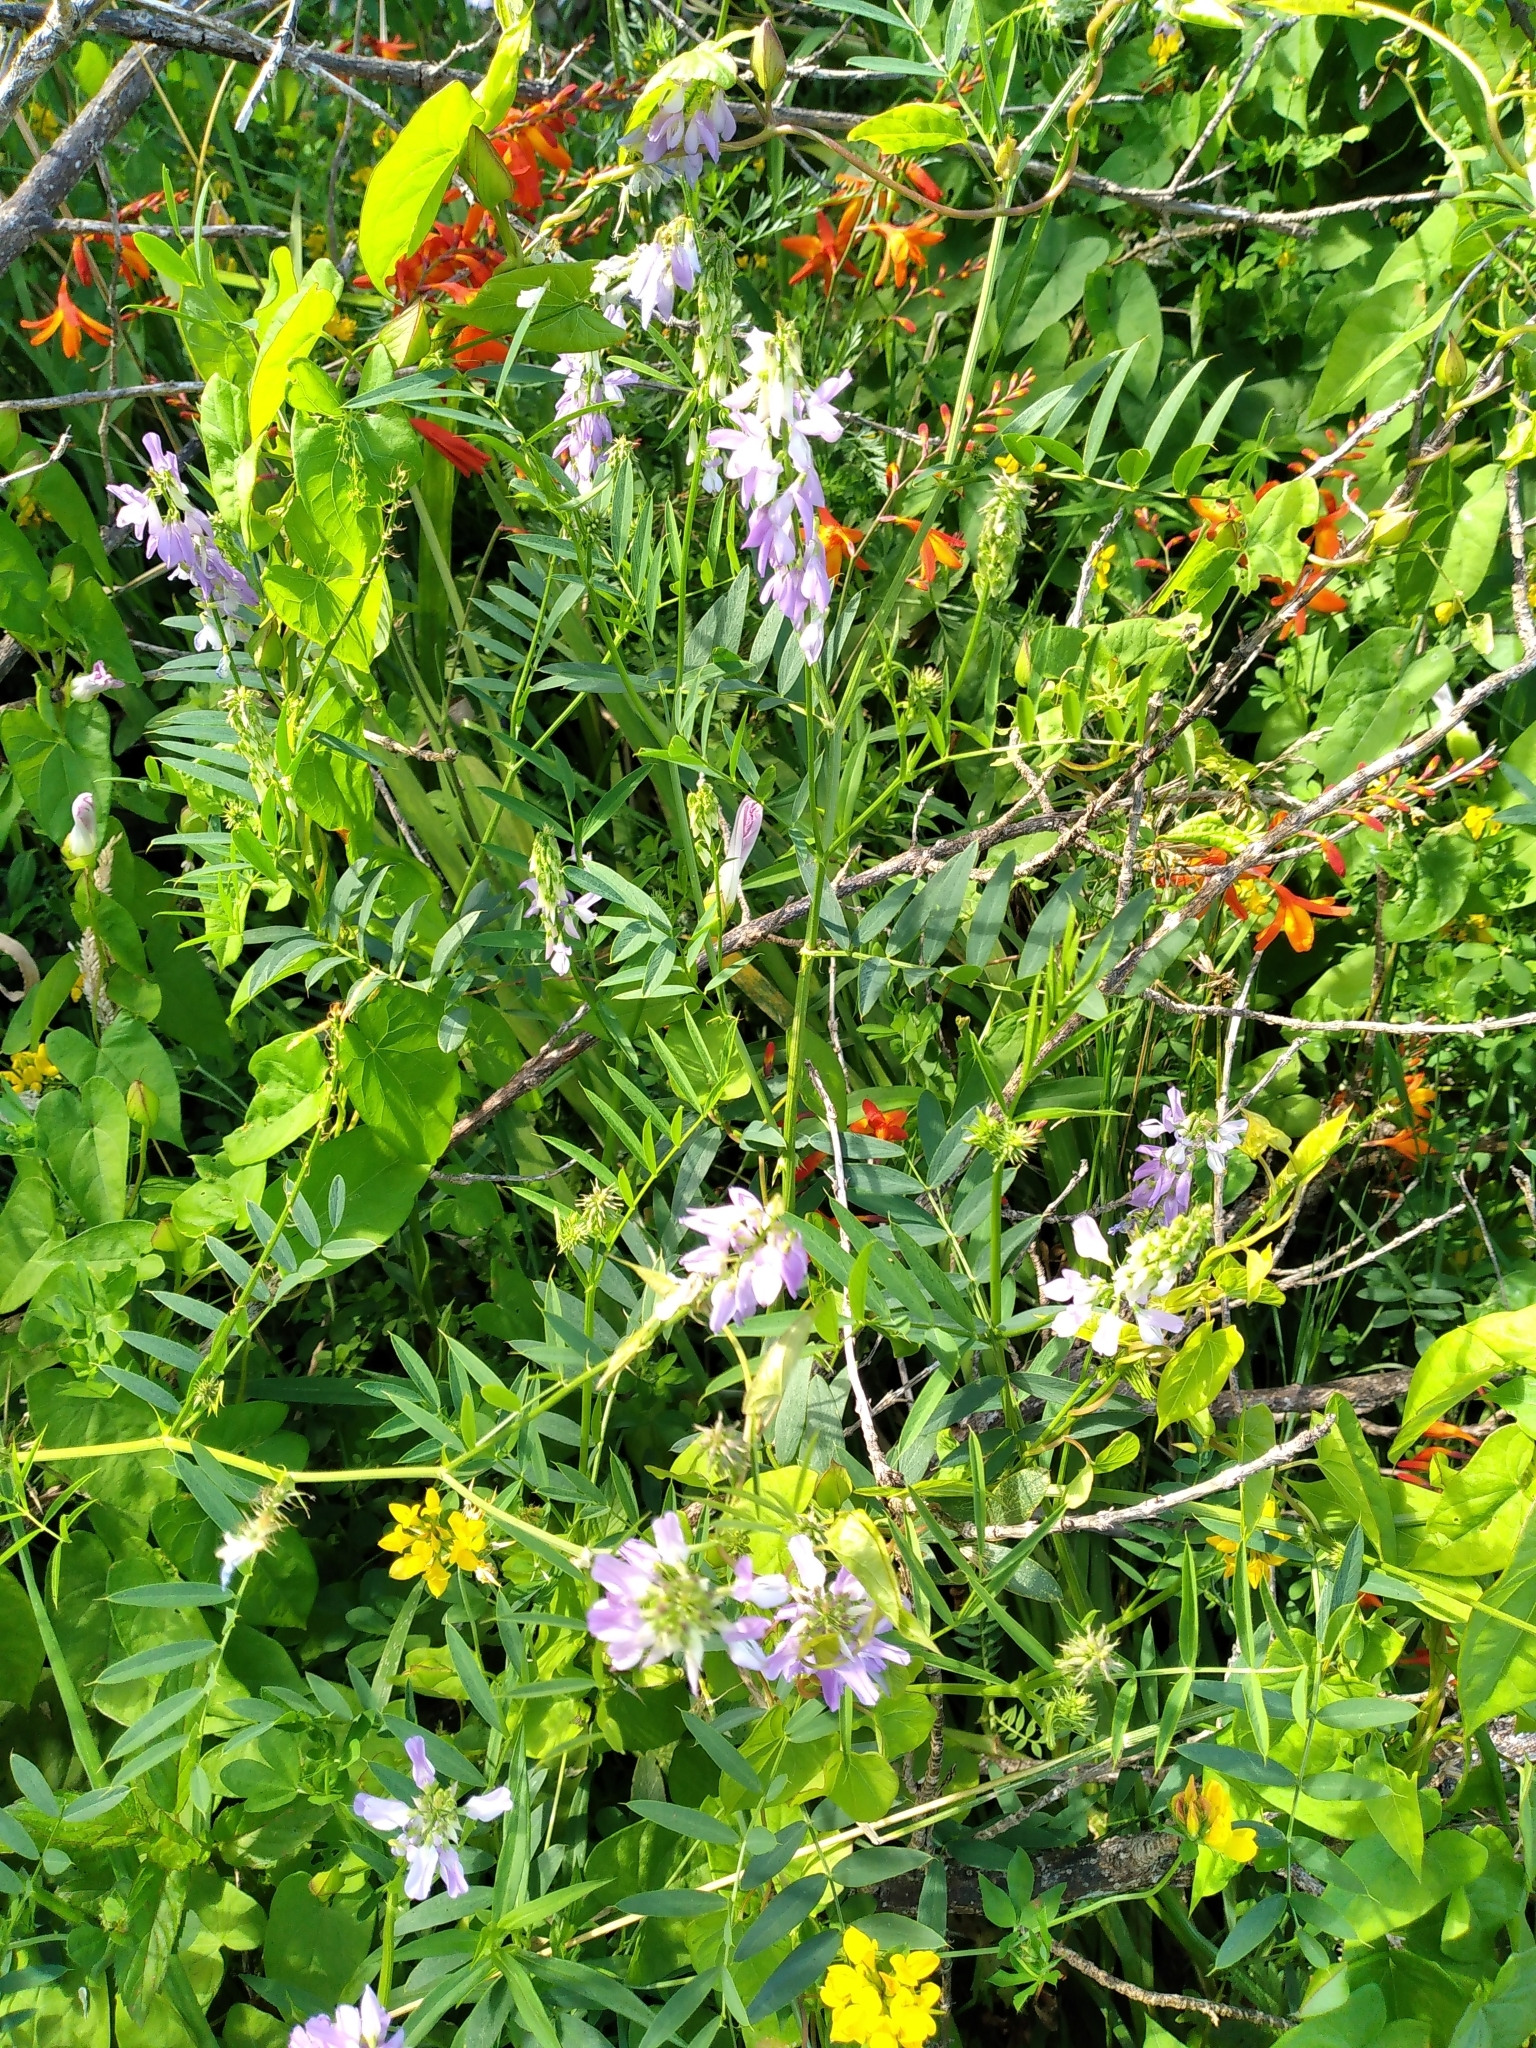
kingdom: Plantae
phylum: Tracheophyta
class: Magnoliopsida
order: Fabales
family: Fabaceae
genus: Galega
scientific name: Galega officinalis
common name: Goat's-rue
